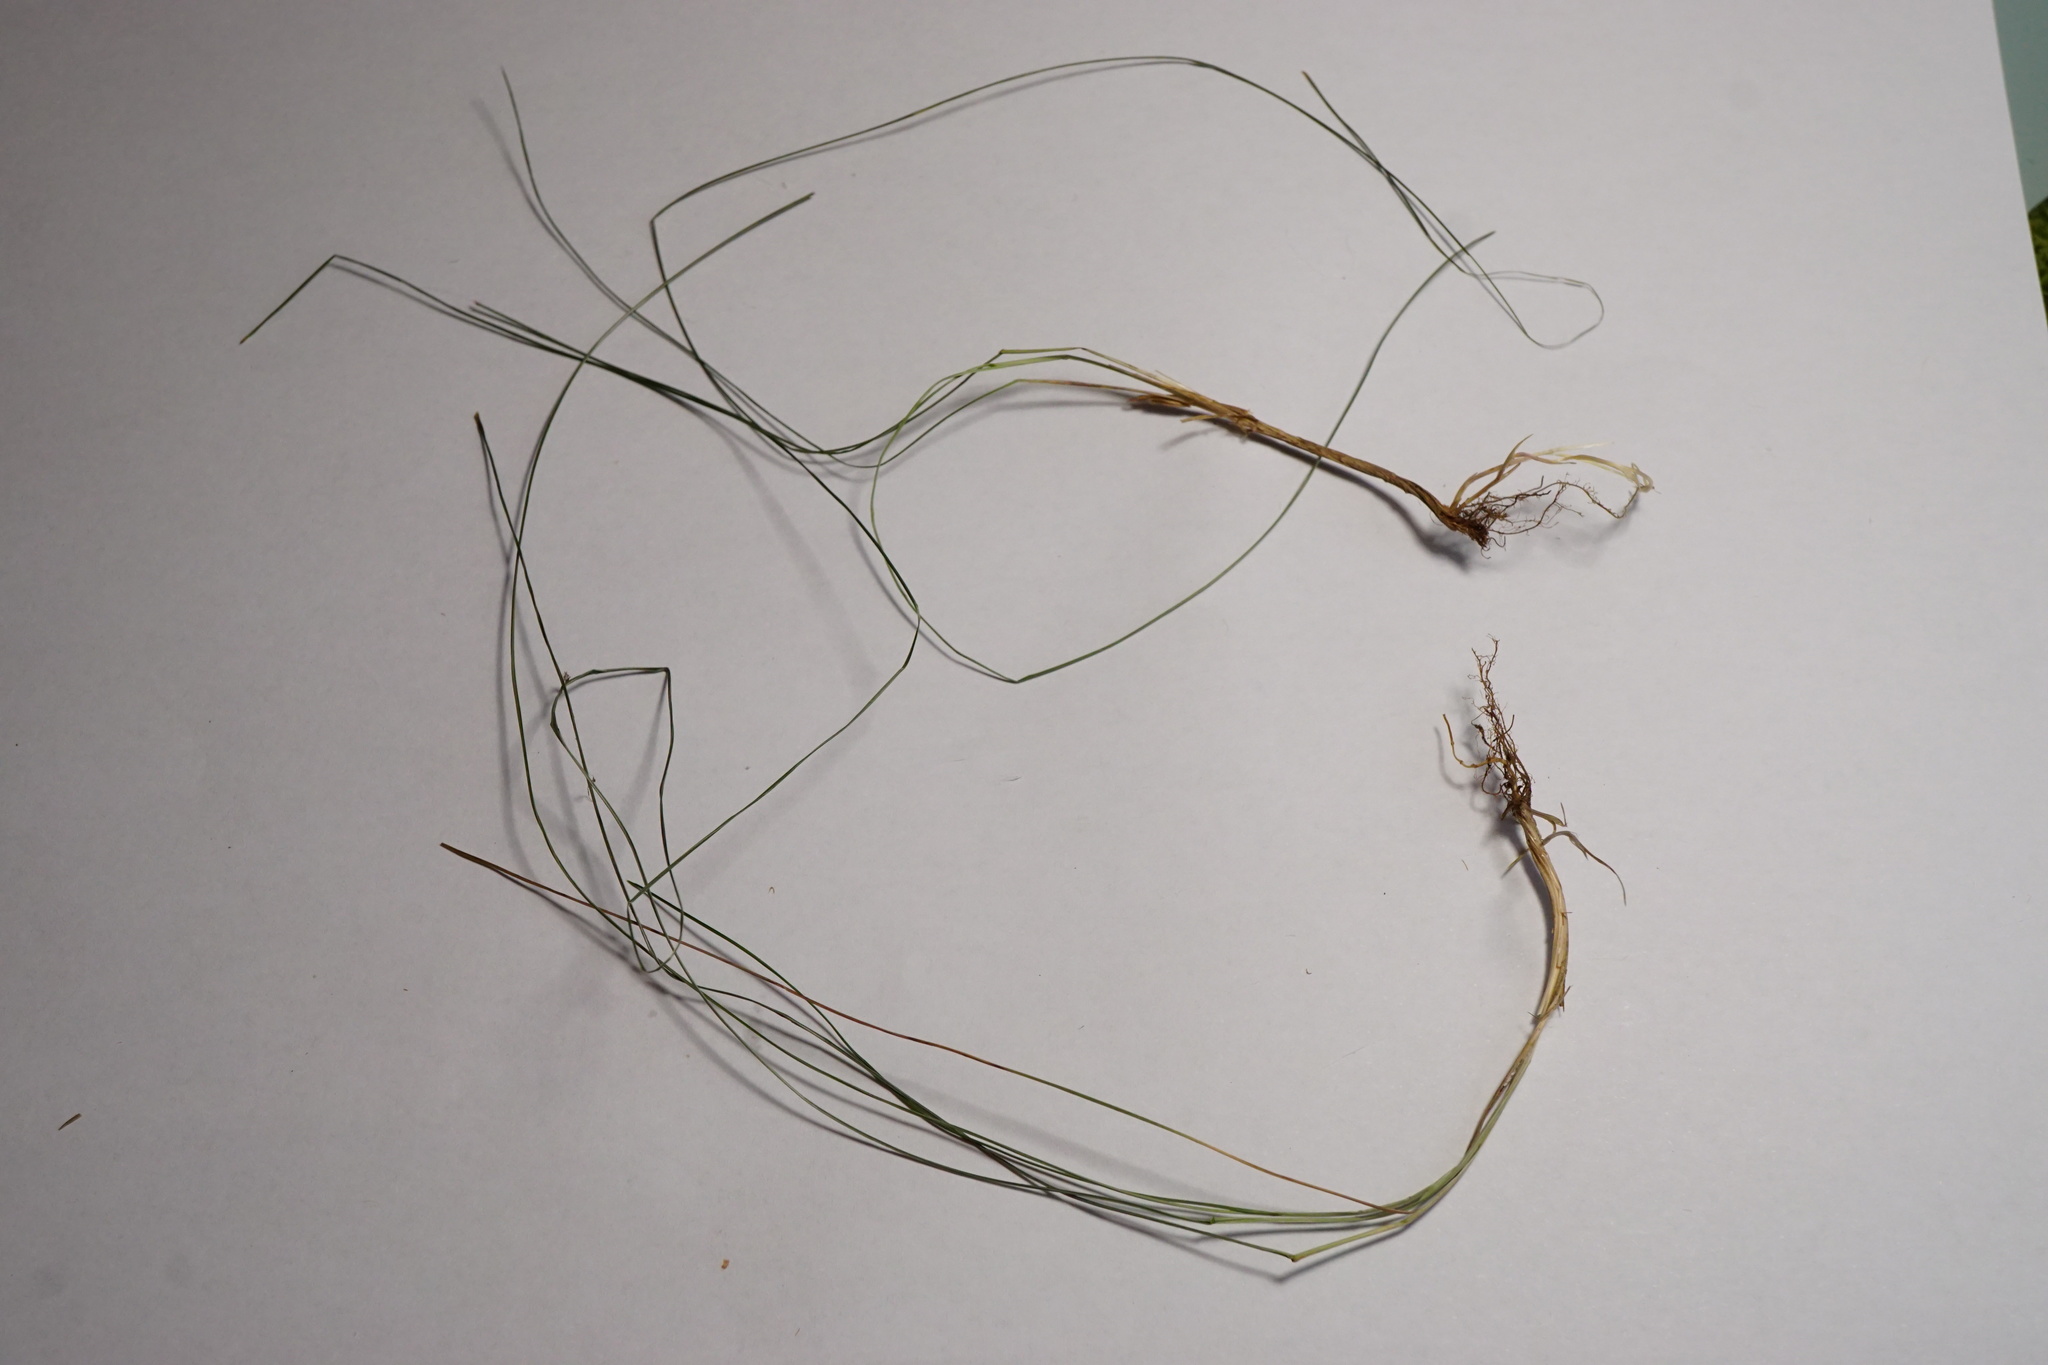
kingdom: Plantae
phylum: Tracheophyta
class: Liliopsida
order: Poales
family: Poaceae
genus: Poa
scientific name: Poa angustifolia
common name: Narrow-leaved meadow-grass
